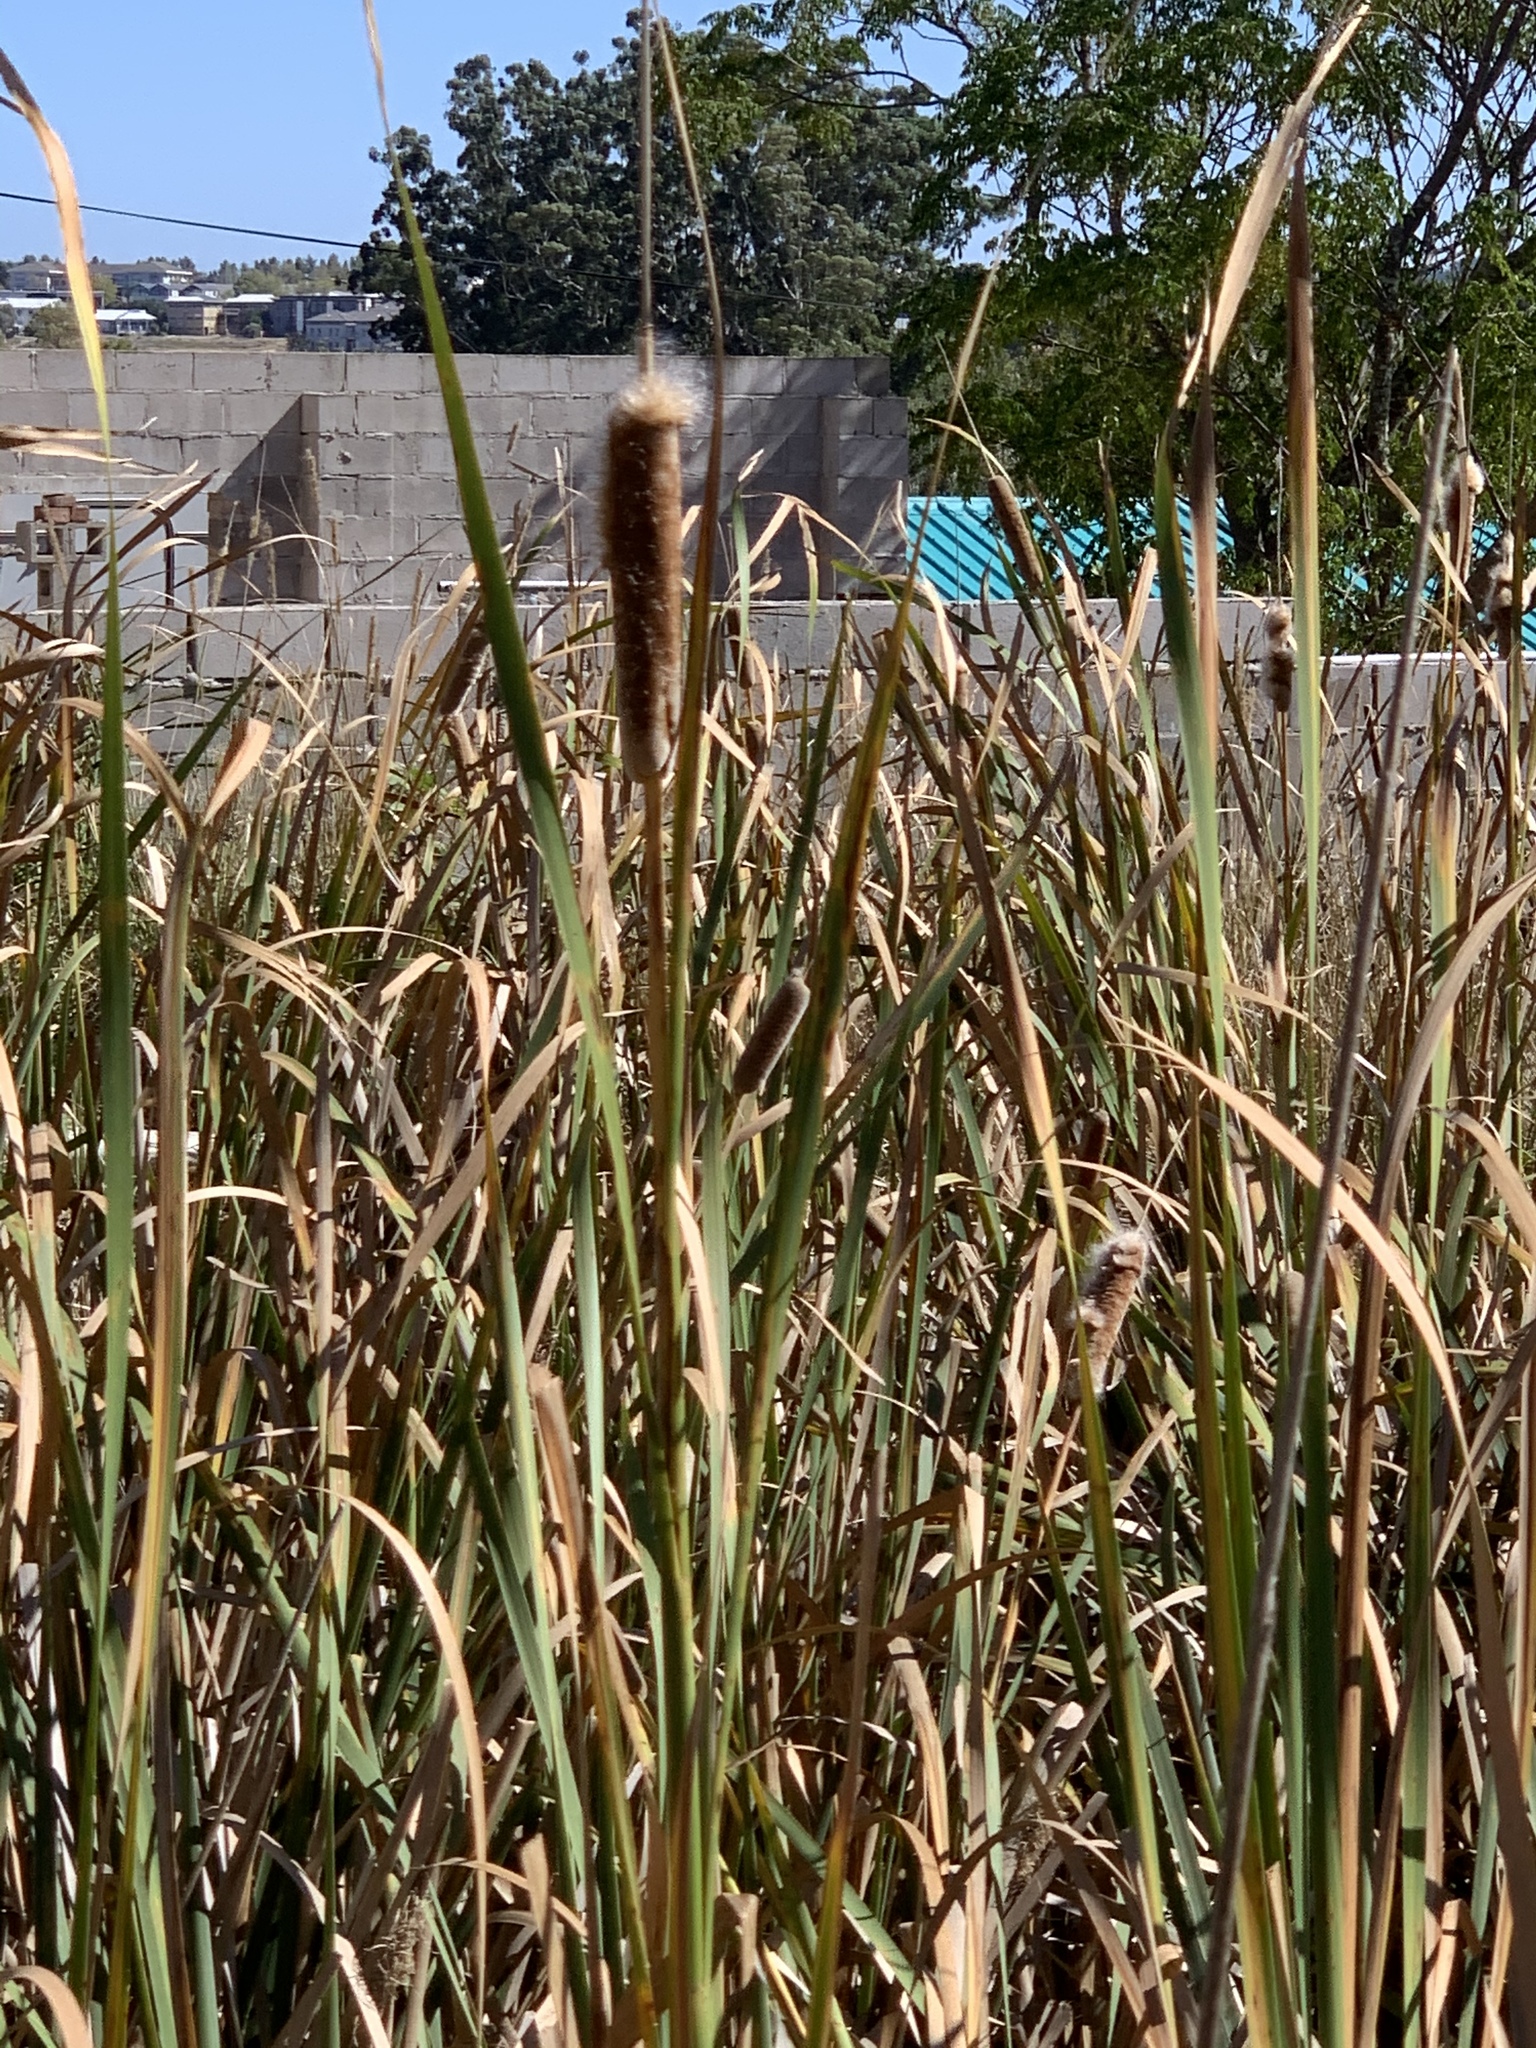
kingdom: Plantae
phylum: Tracheophyta
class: Liliopsida
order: Poales
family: Typhaceae
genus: Typha
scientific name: Typha capensis
